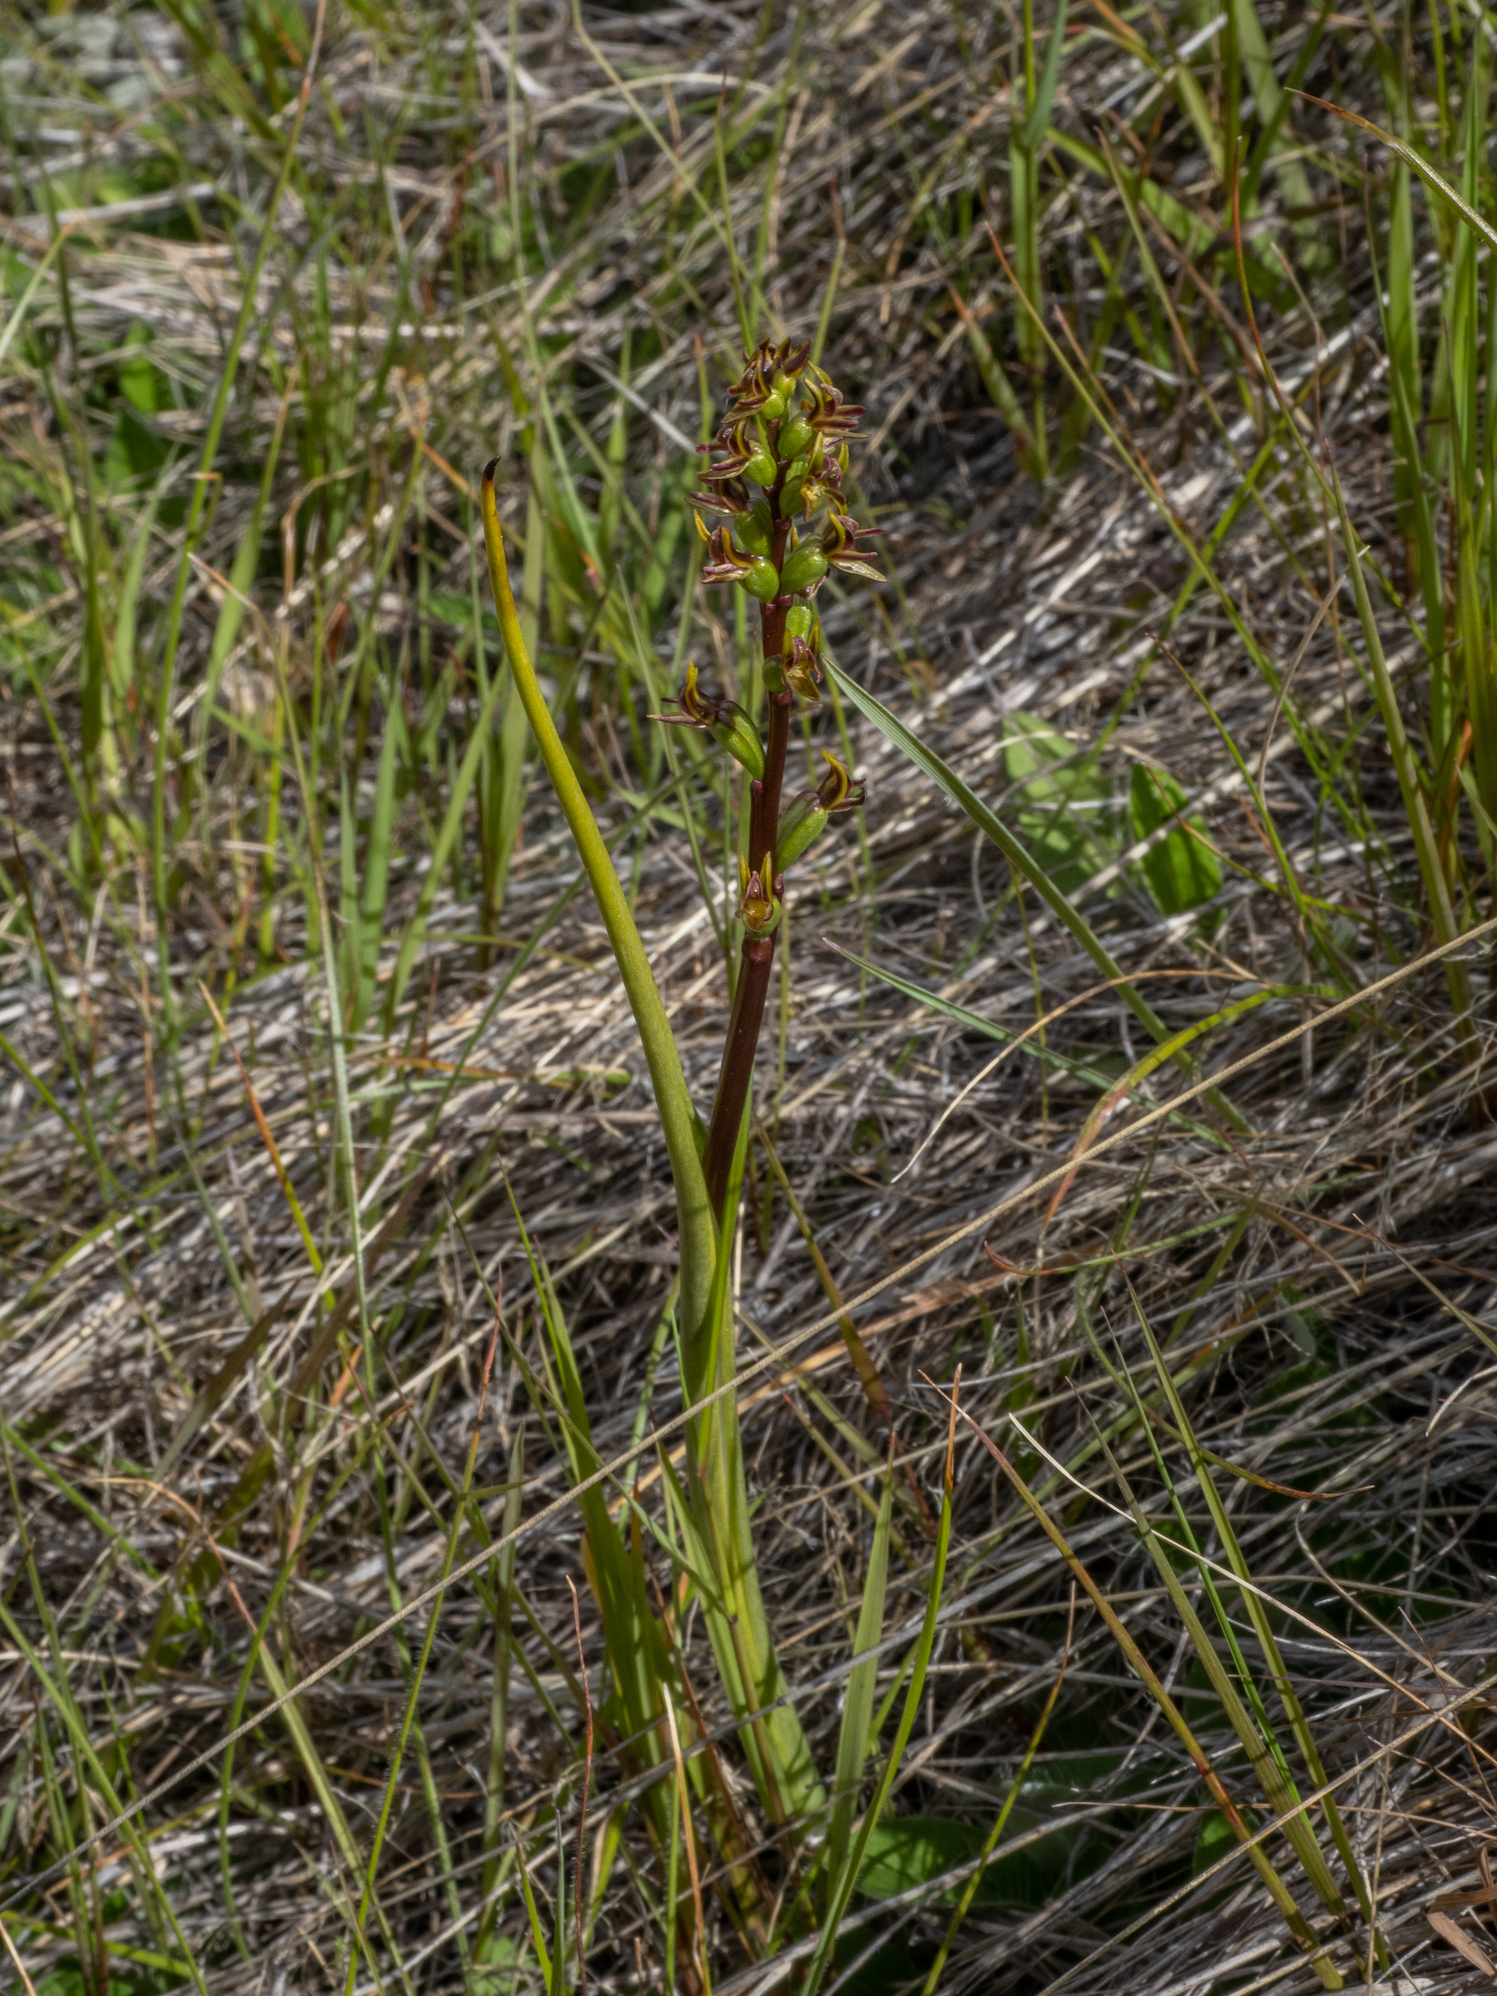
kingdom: Plantae
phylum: Tracheophyta
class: Liliopsida
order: Asparagales
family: Orchidaceae
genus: Prasophyllum
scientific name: Prasophyllum colensoi
